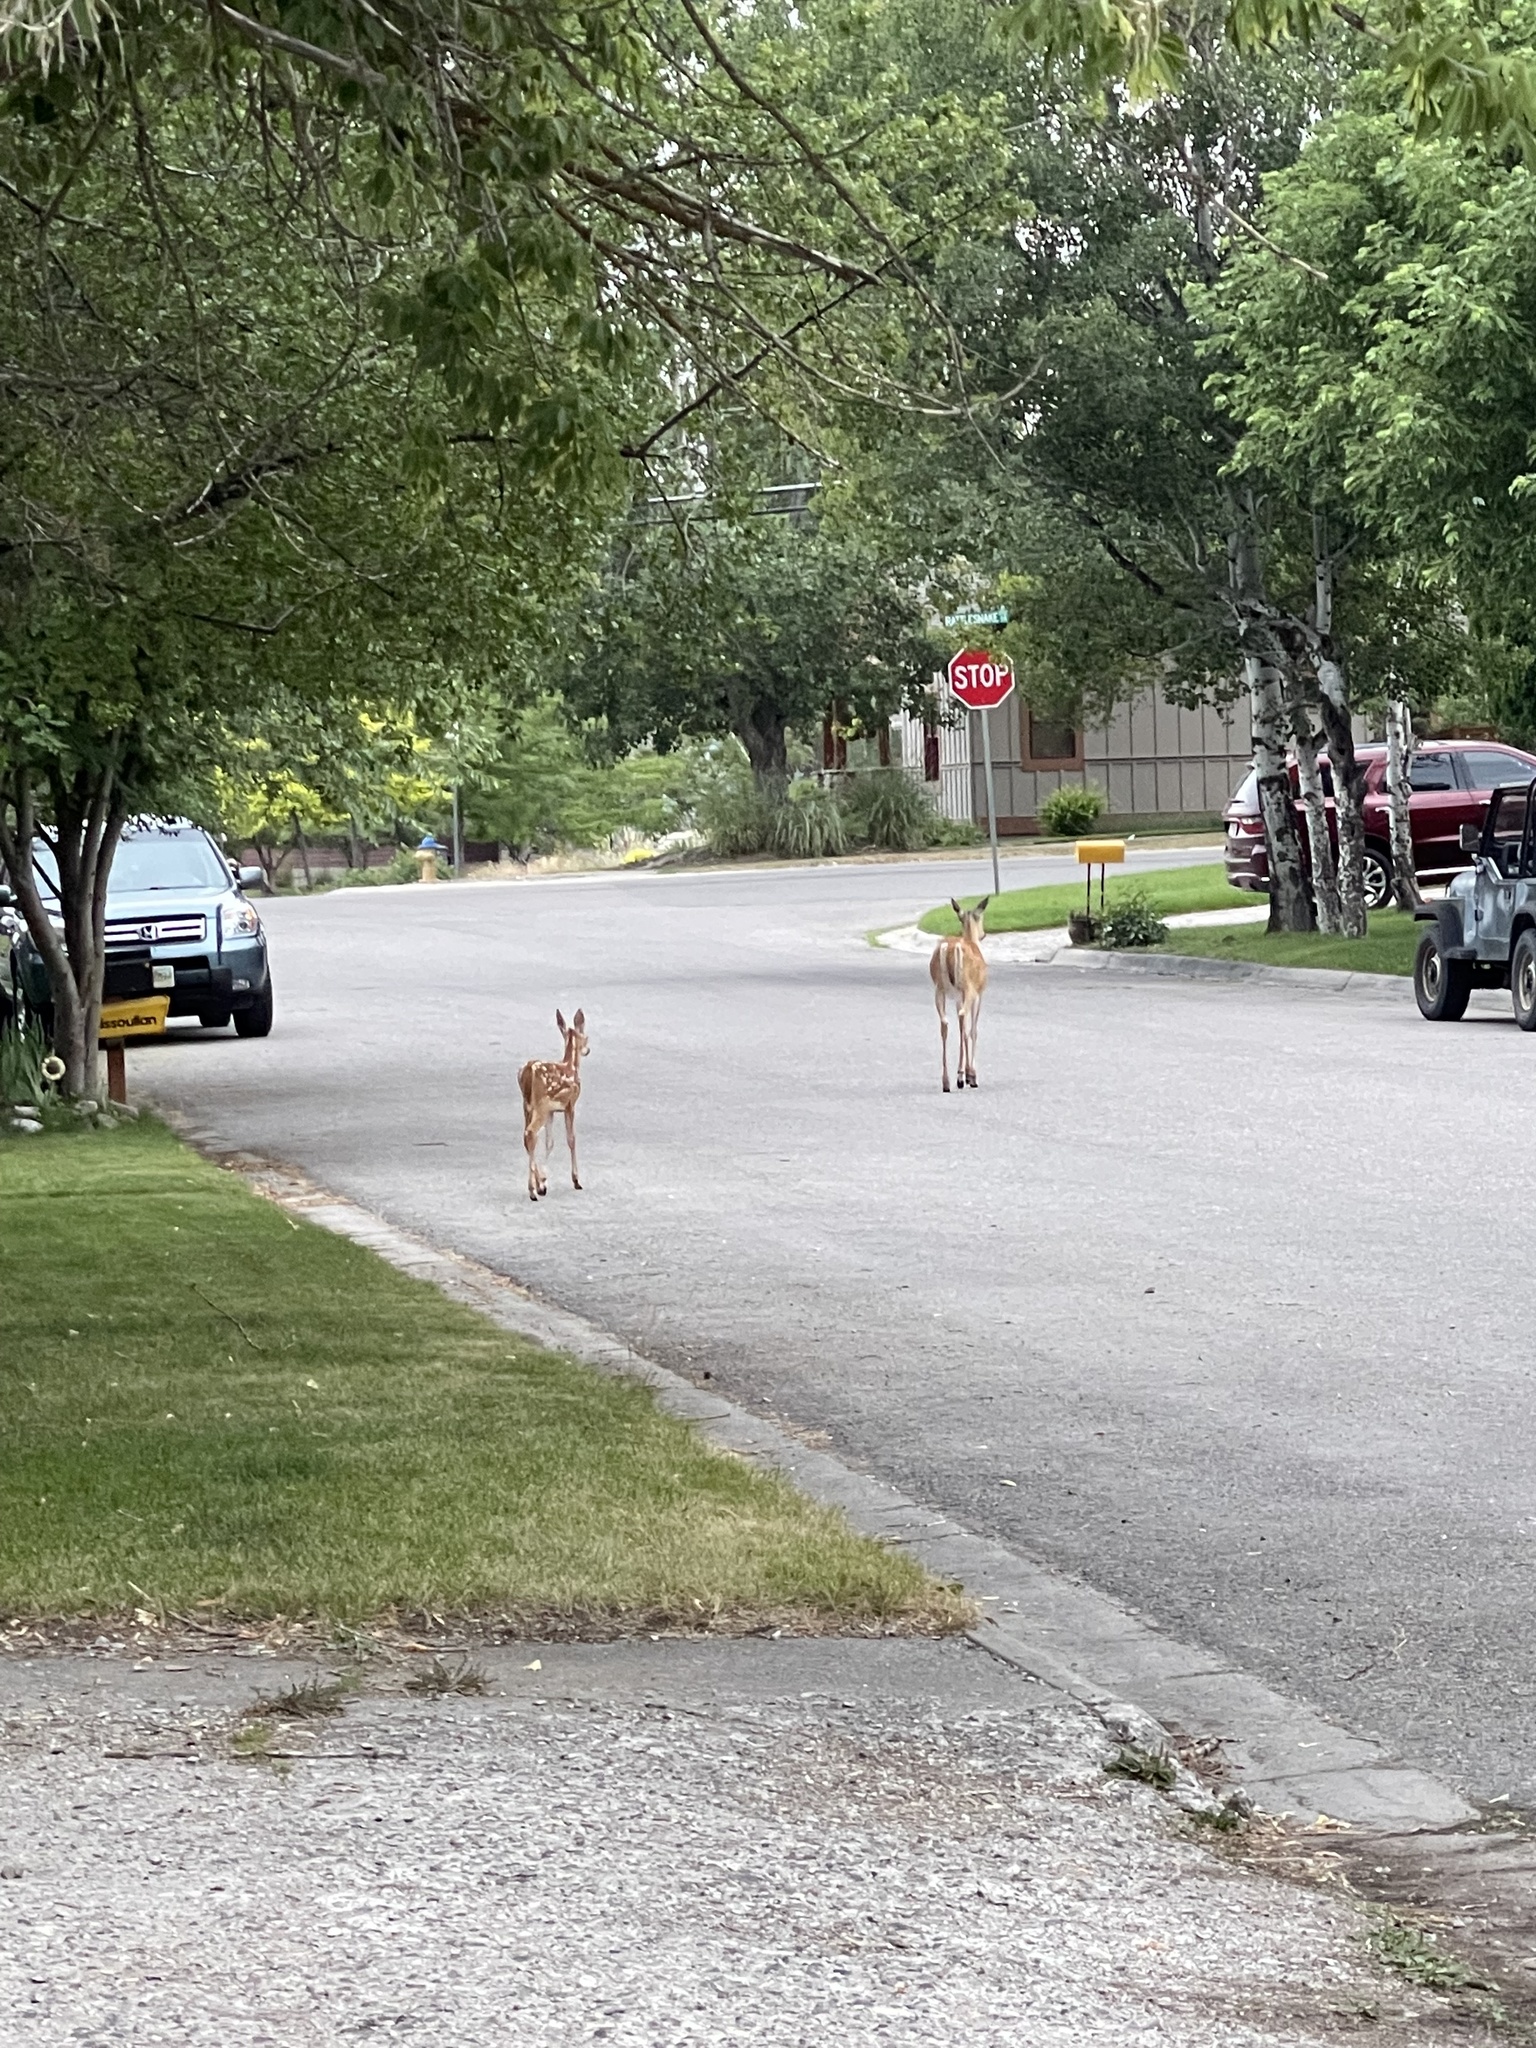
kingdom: Animalia
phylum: Chordata
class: Mammalia
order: Artiodactyla
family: Cervidae
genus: Odocoileus
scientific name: Odocoileus virginianus
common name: White-tailed deer
